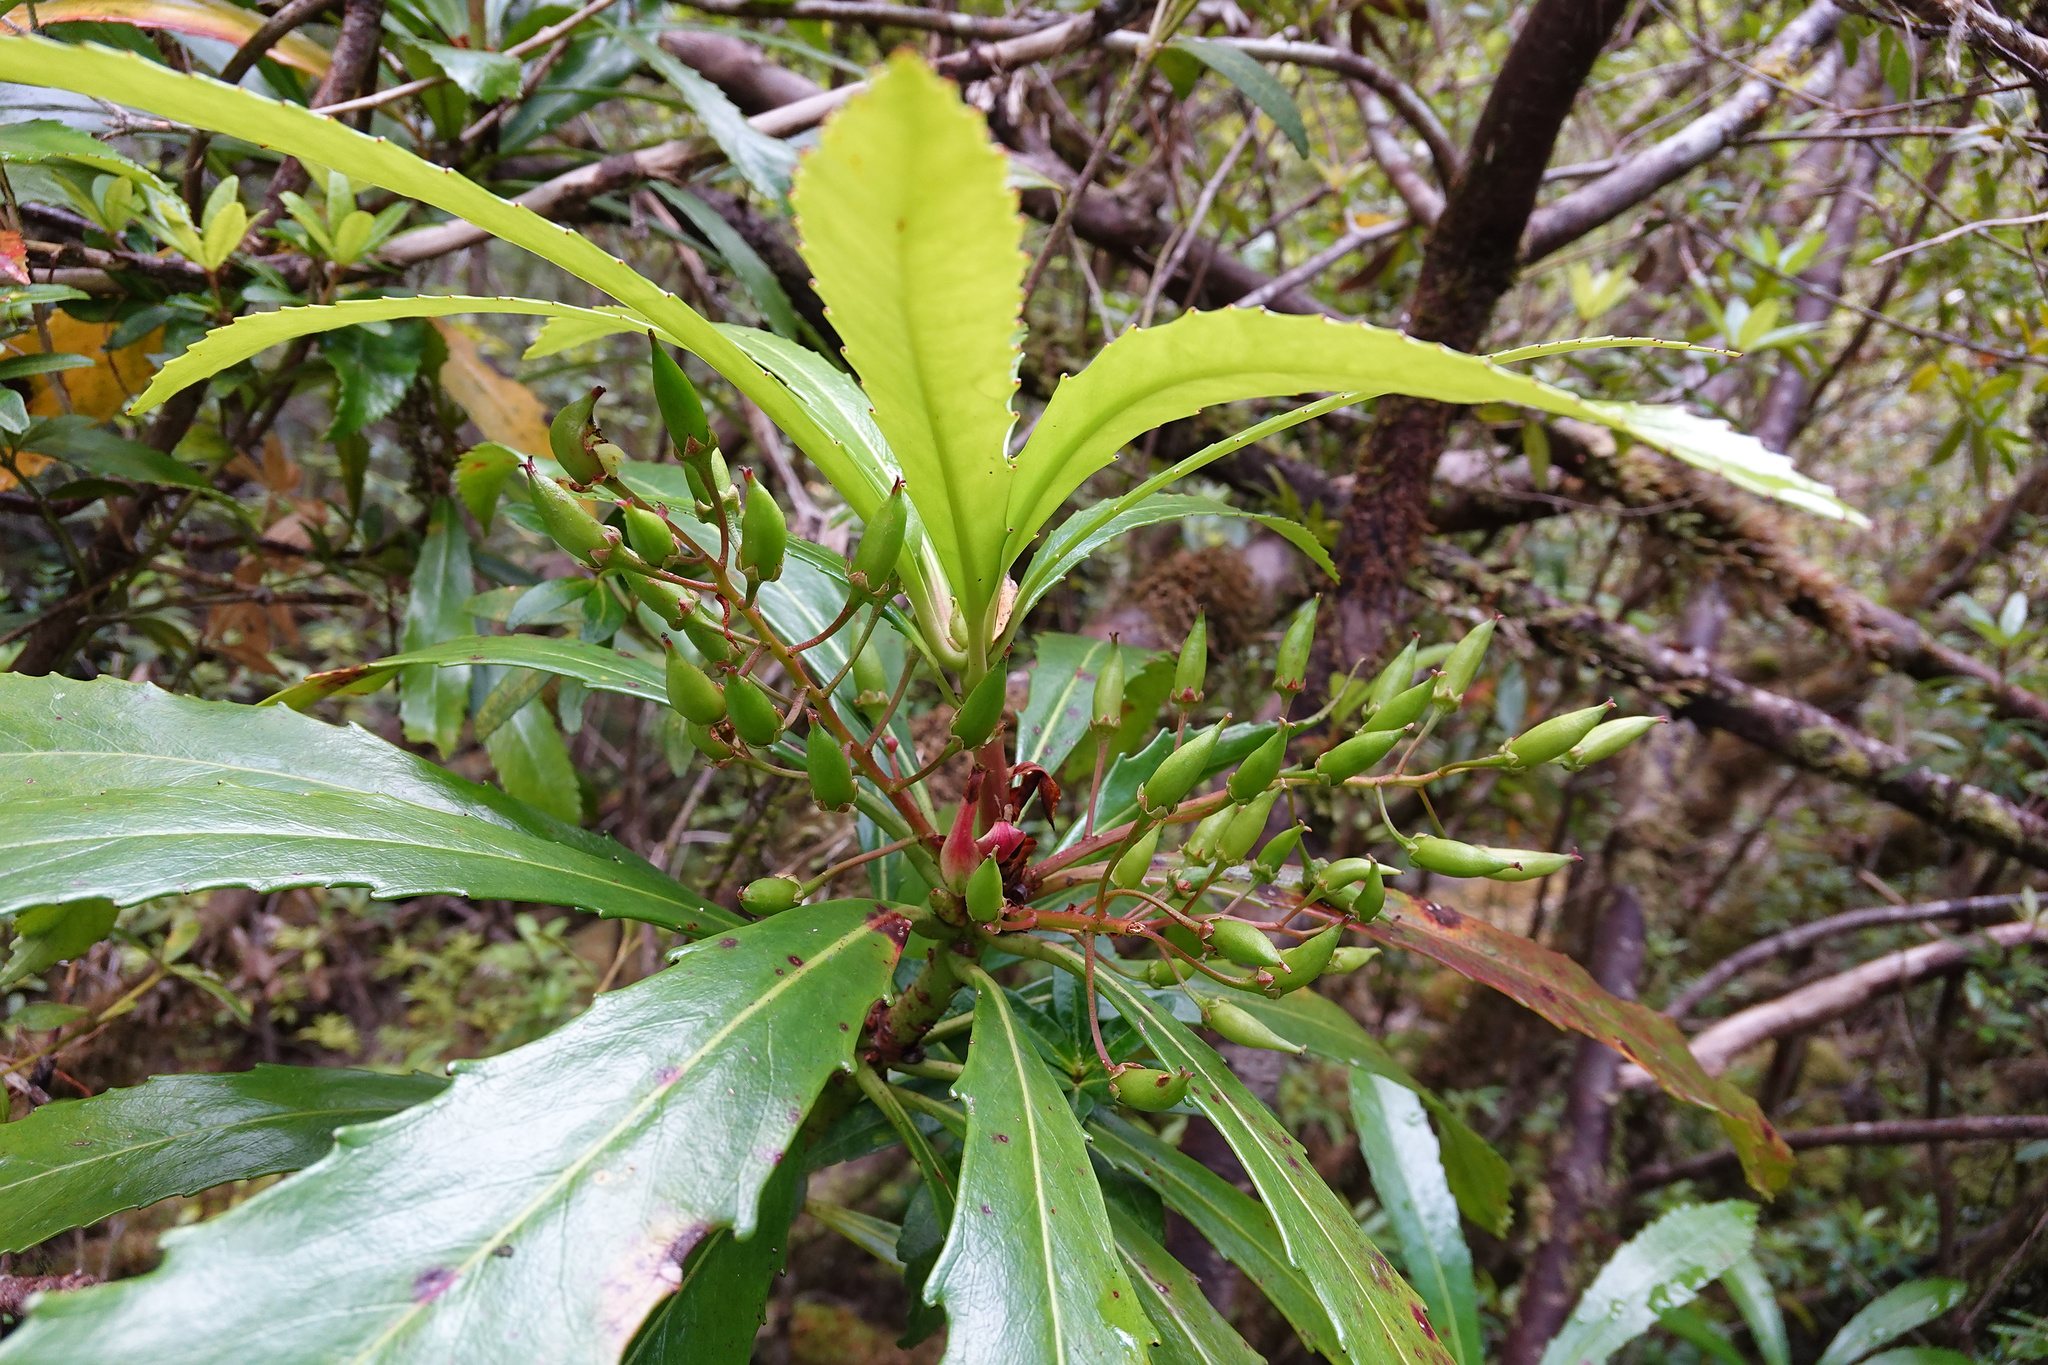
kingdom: Plantae
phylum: Tracheophyta
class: Magnoliopsida
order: Escalloniales
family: Escalloniaceae
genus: Anopterus
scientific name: Anopterus glandulosus
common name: Tasmanian-laurel
